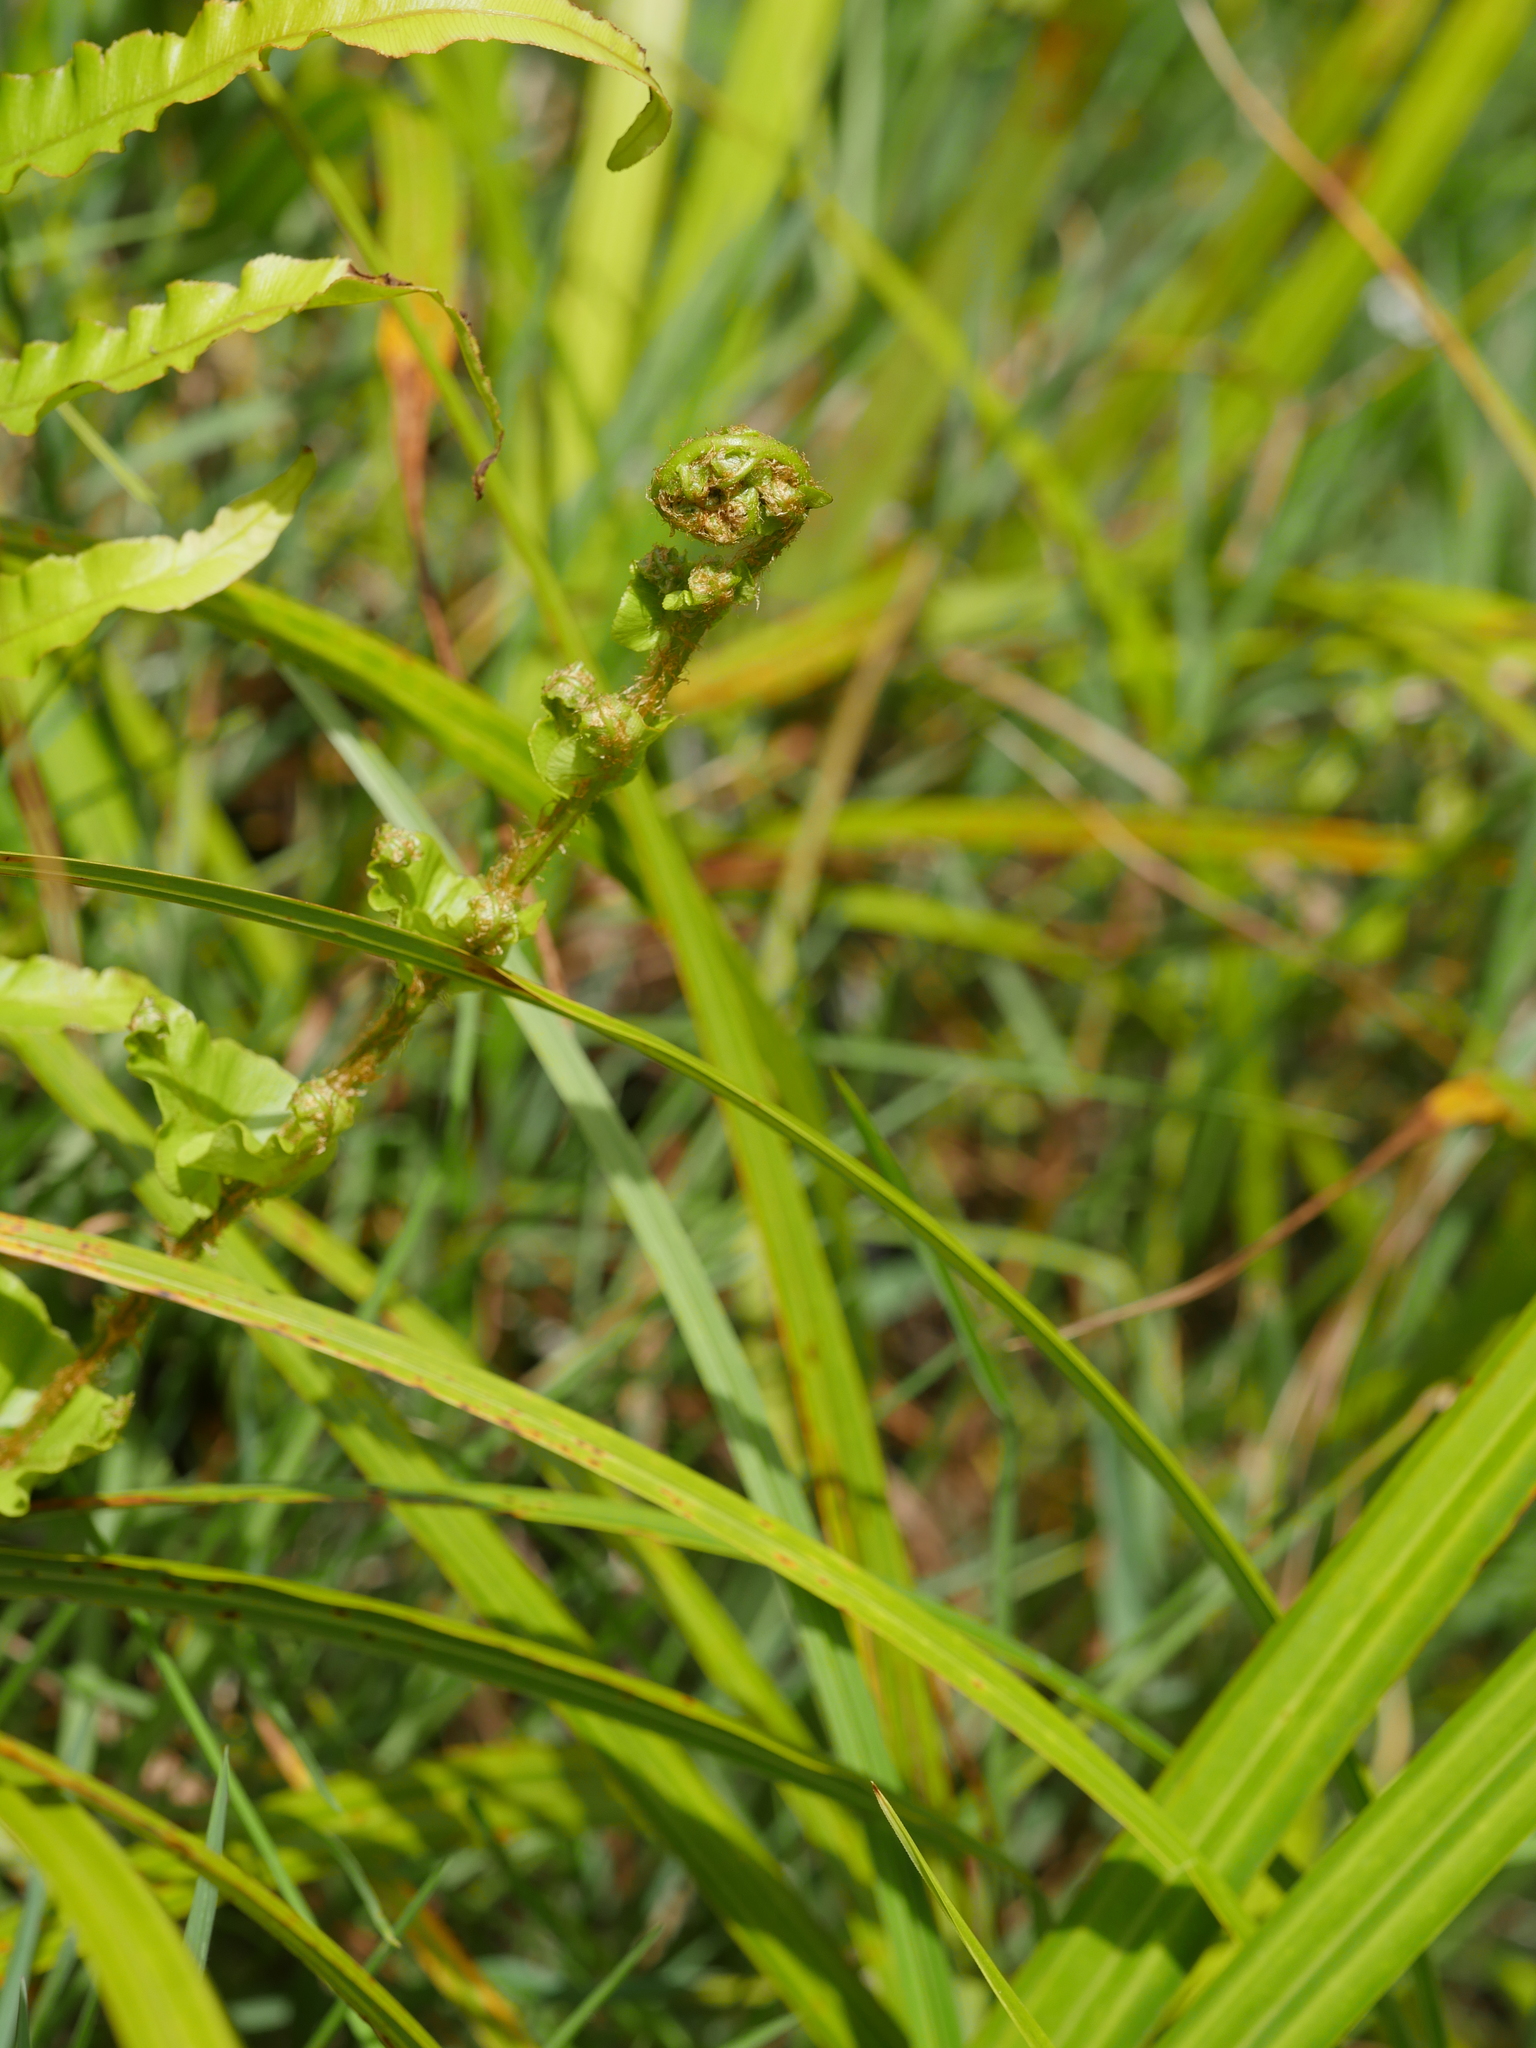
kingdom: Plantae
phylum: Tracheophyta
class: Polypodiopsida
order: Polypodiales
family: Blechnaceae
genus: Parablechnum
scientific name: Parablechnum minus
